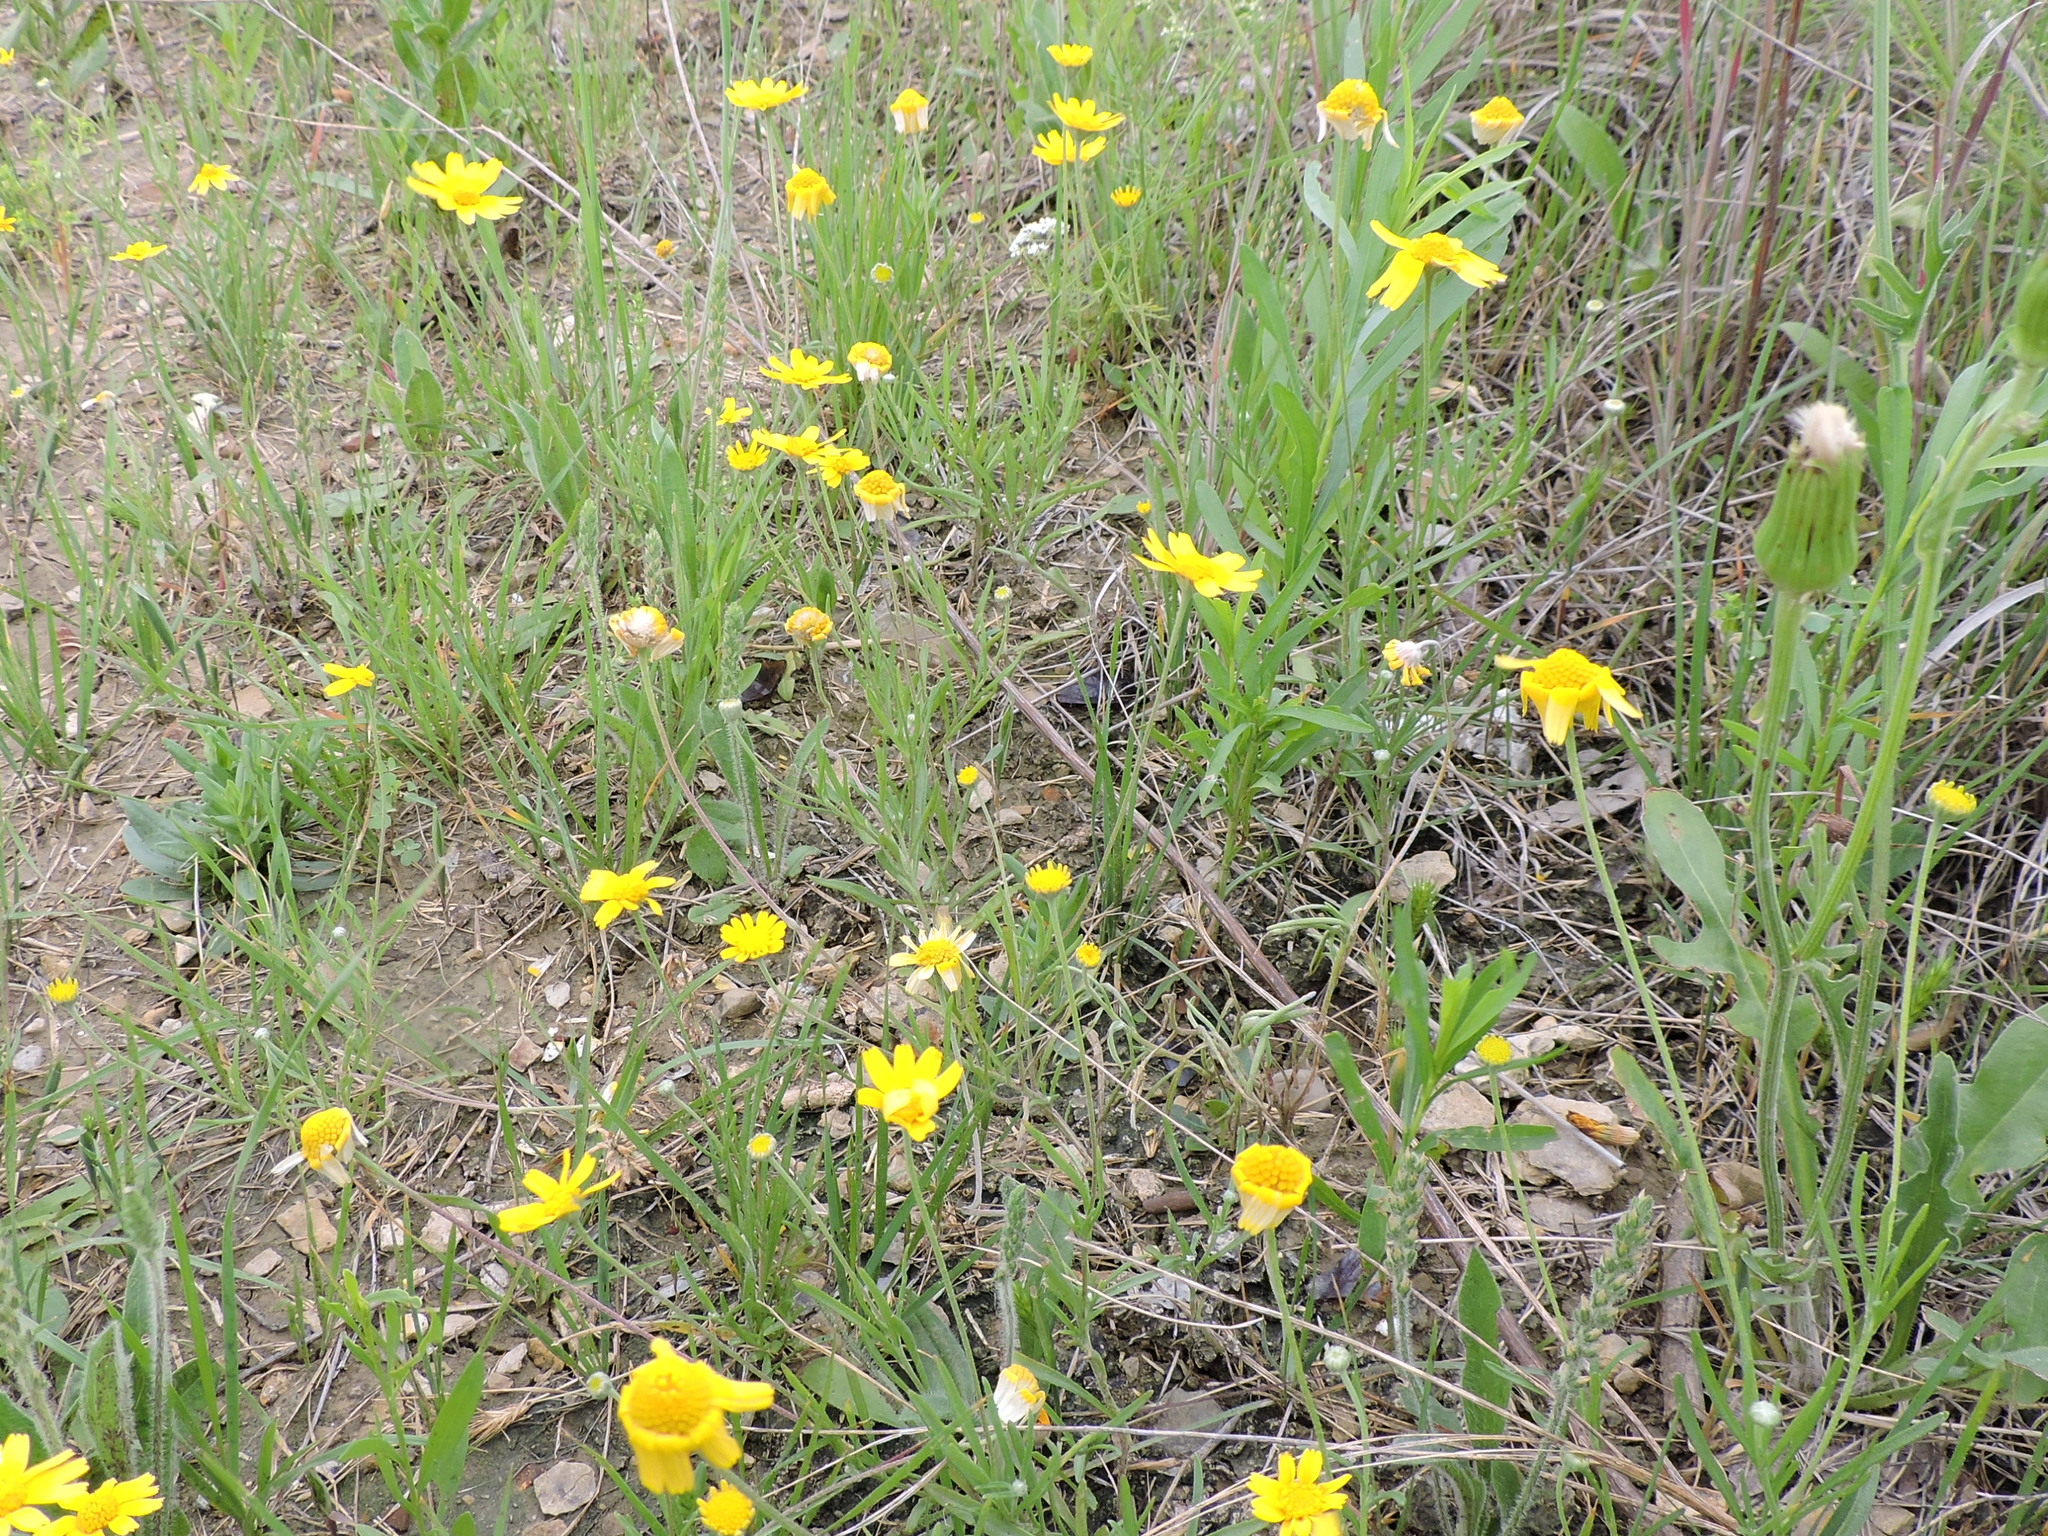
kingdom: Plantae
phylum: Tracheophyta
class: Magnoliopsida
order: Asterales
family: Asteraceae
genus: Tetraneuris
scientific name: Tetraneuris linearifolia
